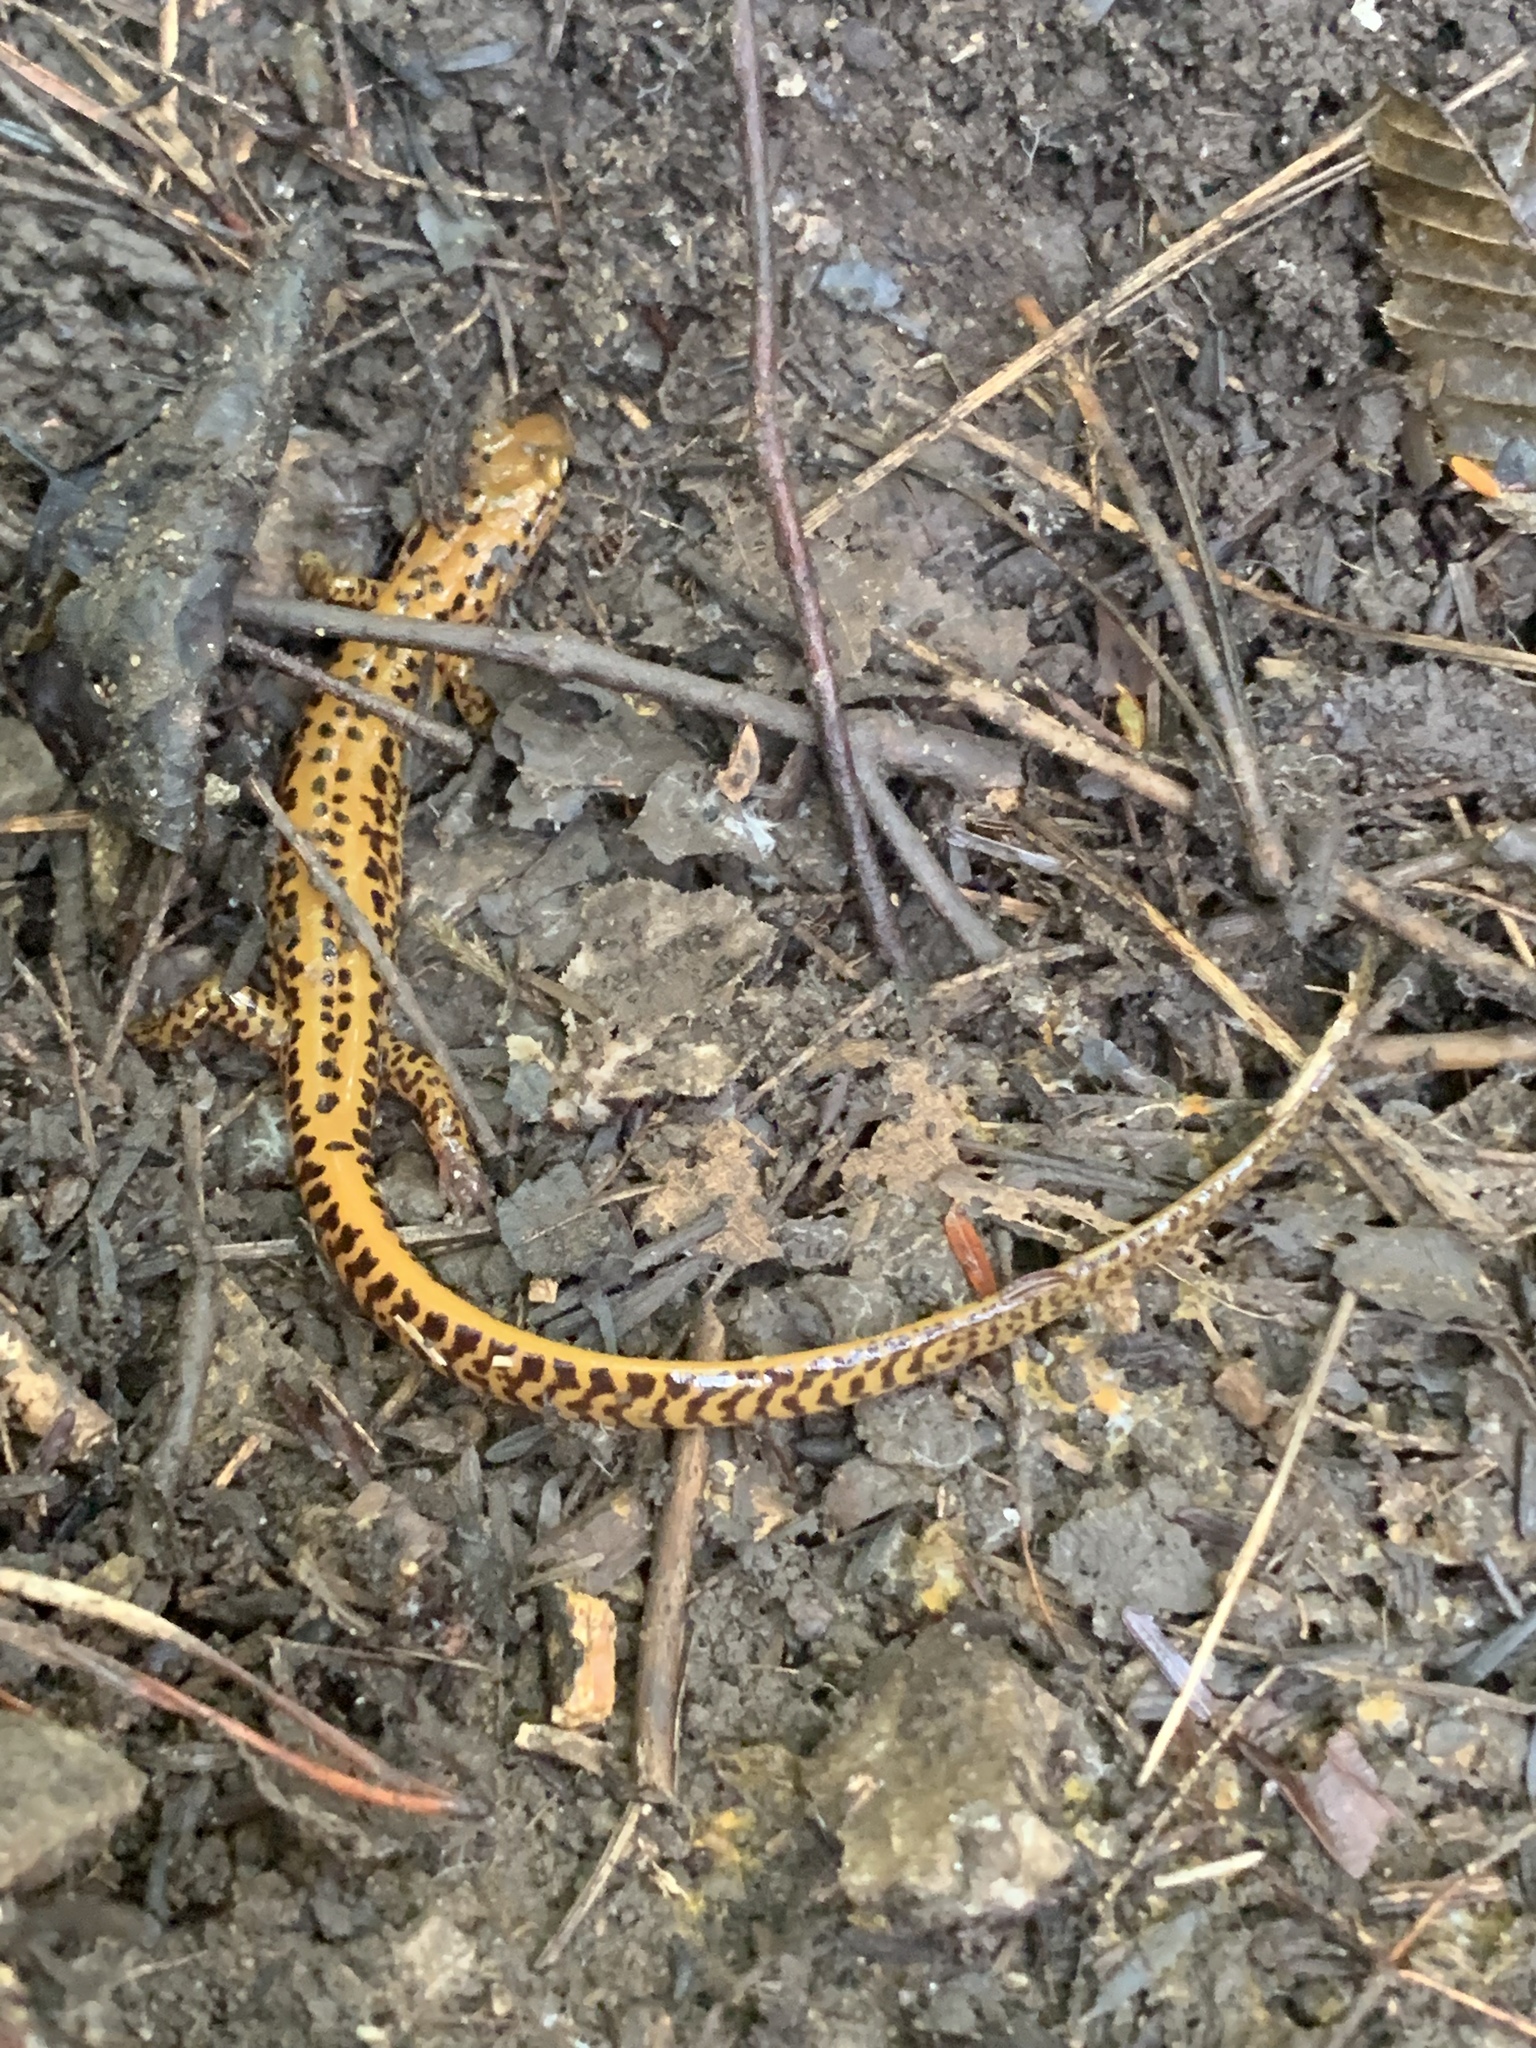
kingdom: Animalia
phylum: Chordata
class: Amphibia
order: Caudata
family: Plethodontidae
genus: Eurycea
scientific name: Eurycea longicauda
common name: Long-tailed salamander
